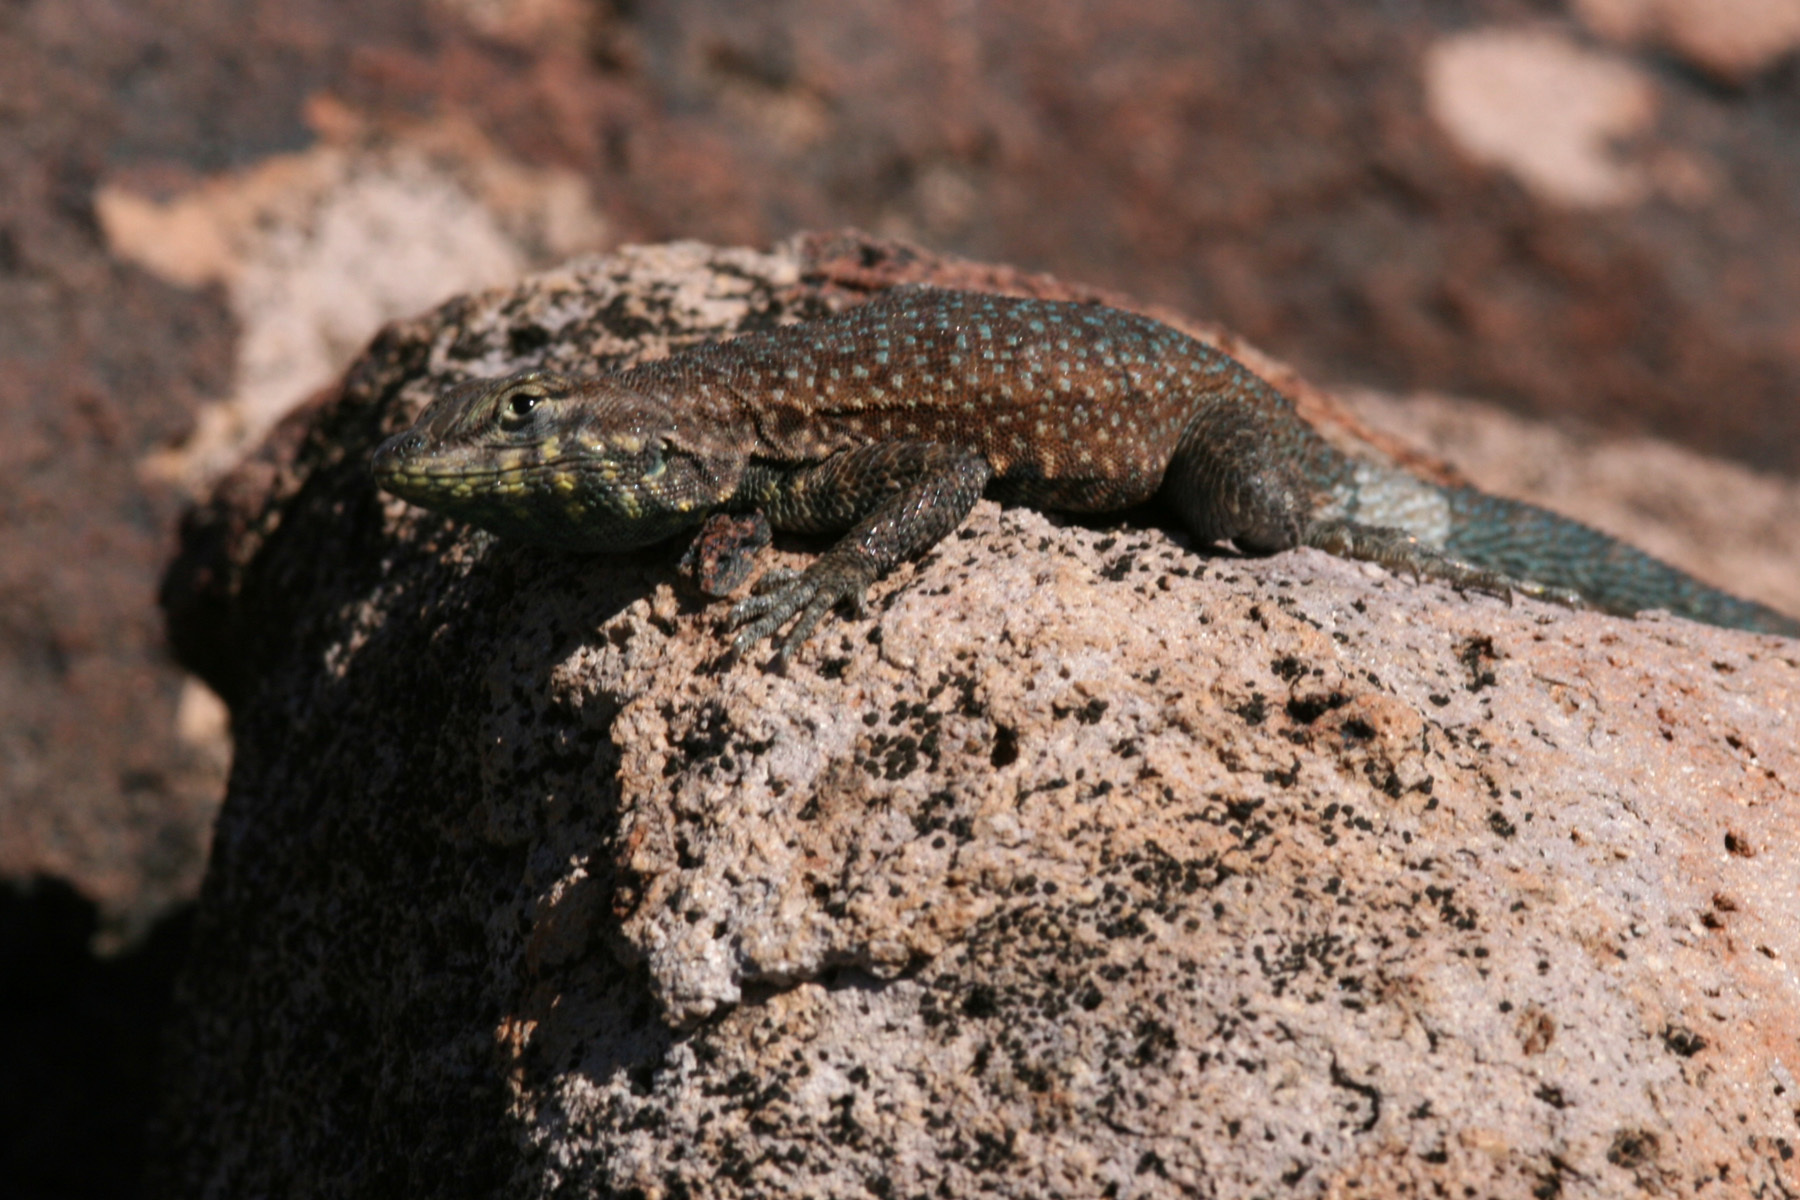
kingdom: Animalia
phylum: Chordata
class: Squamata
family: Phrynosomatidae
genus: Uta
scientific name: Uta stansburiana
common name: Side-blotched lizard
